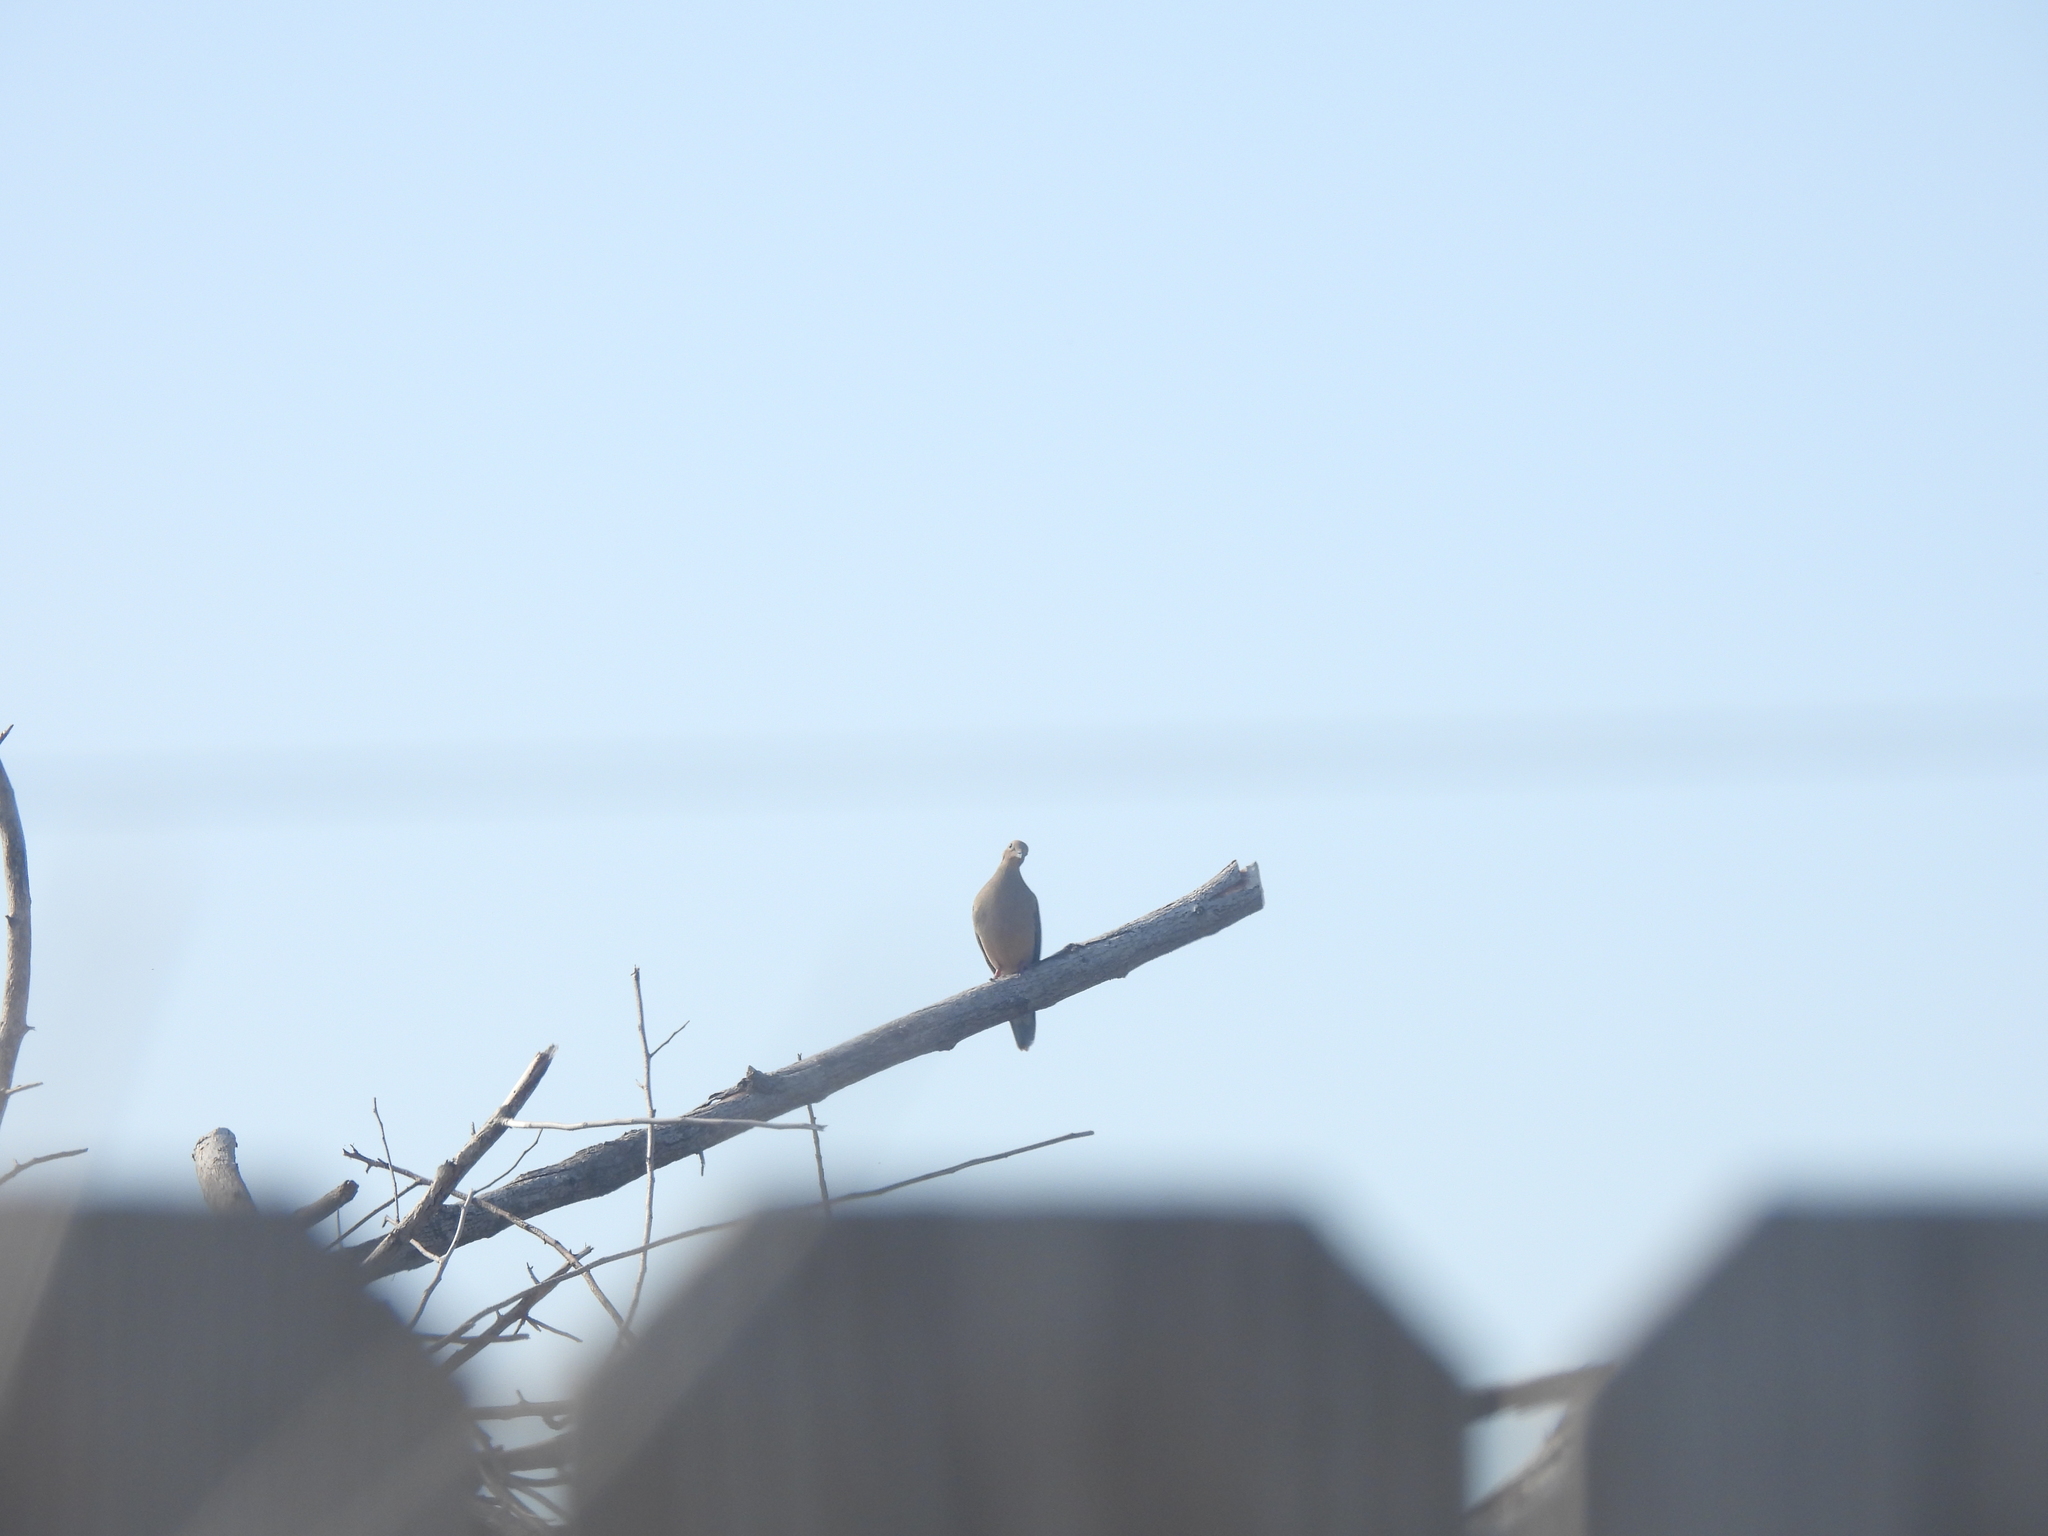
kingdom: Animalia
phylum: Chordata
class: Aves
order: Columbiformes
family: Columbidae
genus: Zenaida
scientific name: Zenaida macroura
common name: Mourning dove
